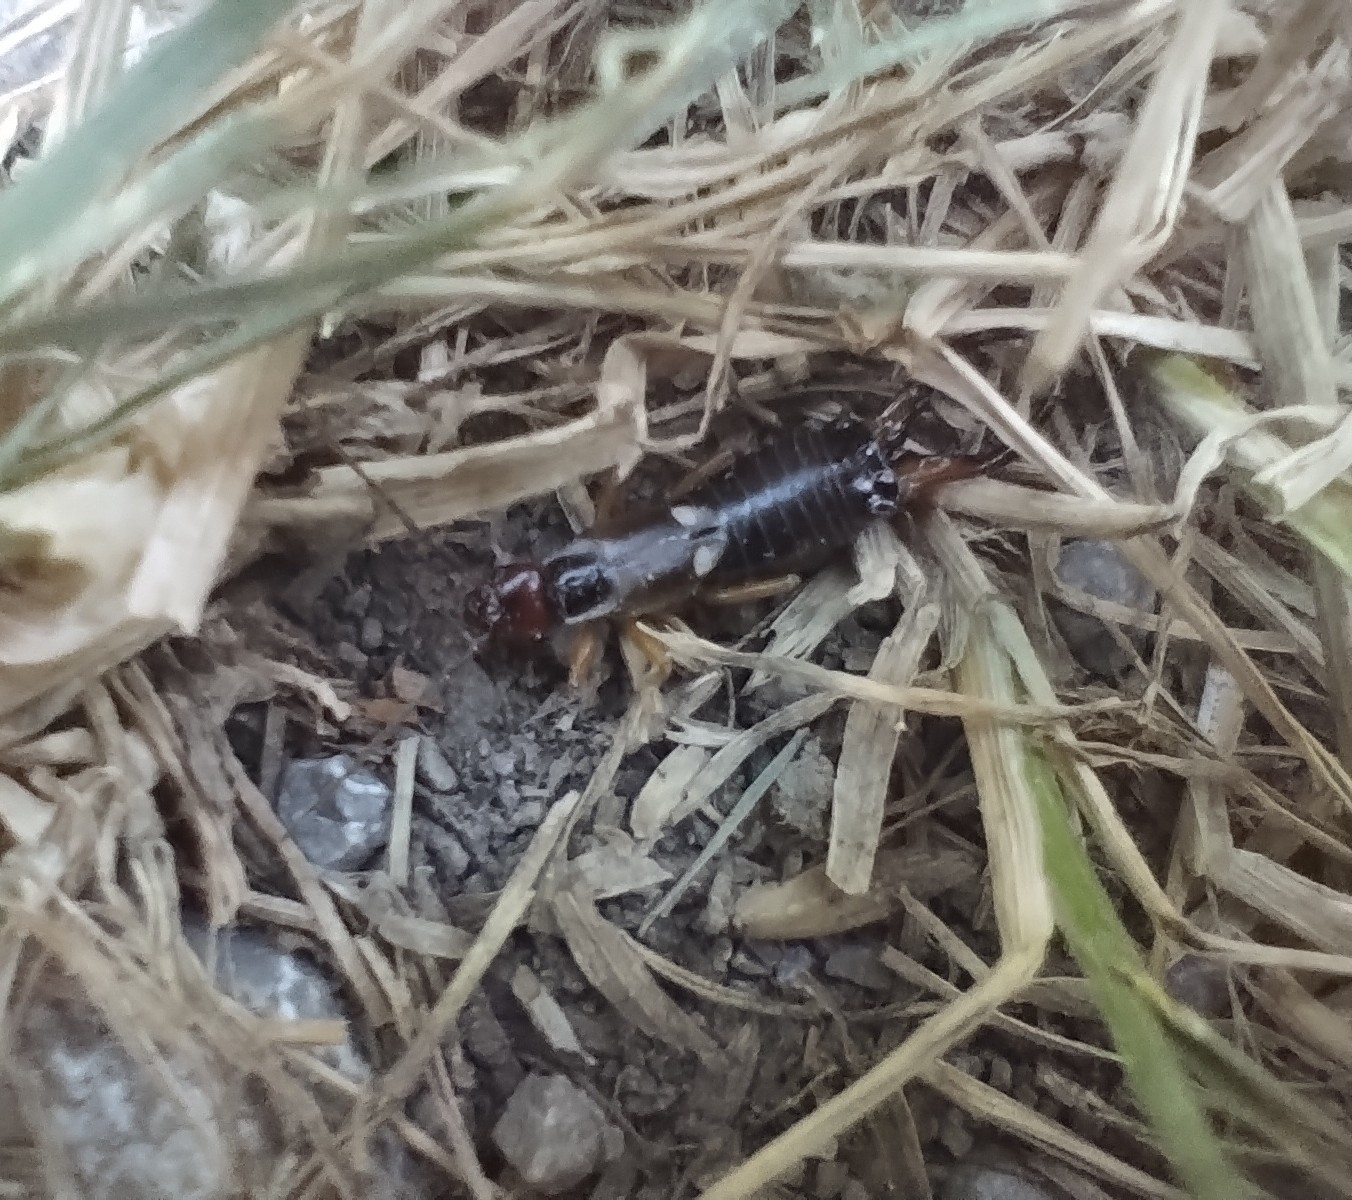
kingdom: Animalia
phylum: Arthropoda
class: Insecta
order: Dermaptera
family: Forficulidae
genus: Forficula
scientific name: Forficula
